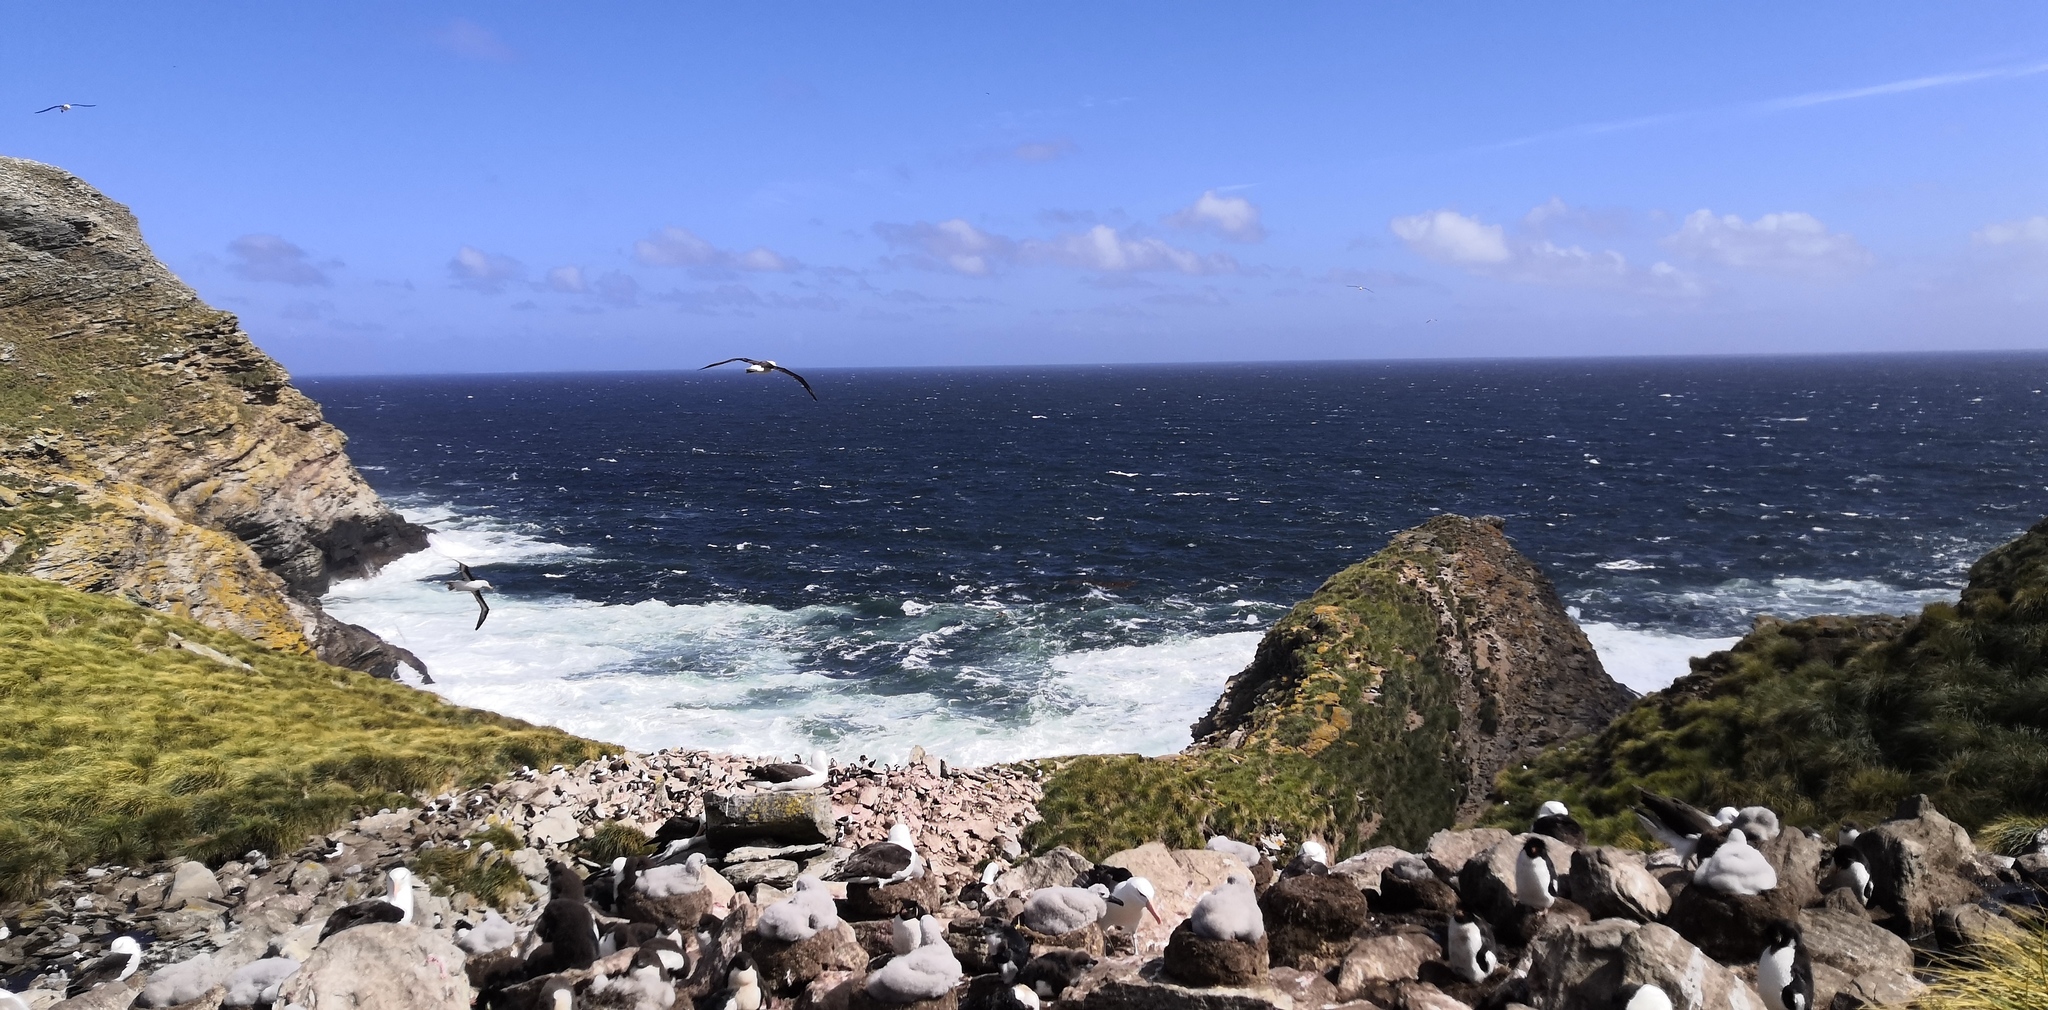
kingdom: Animalia
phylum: Chordata
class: Aves
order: Procellariiformes
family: Diomedeidae
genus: Thalassarche
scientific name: Thalassarche melanophris
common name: Black-browed albatross
